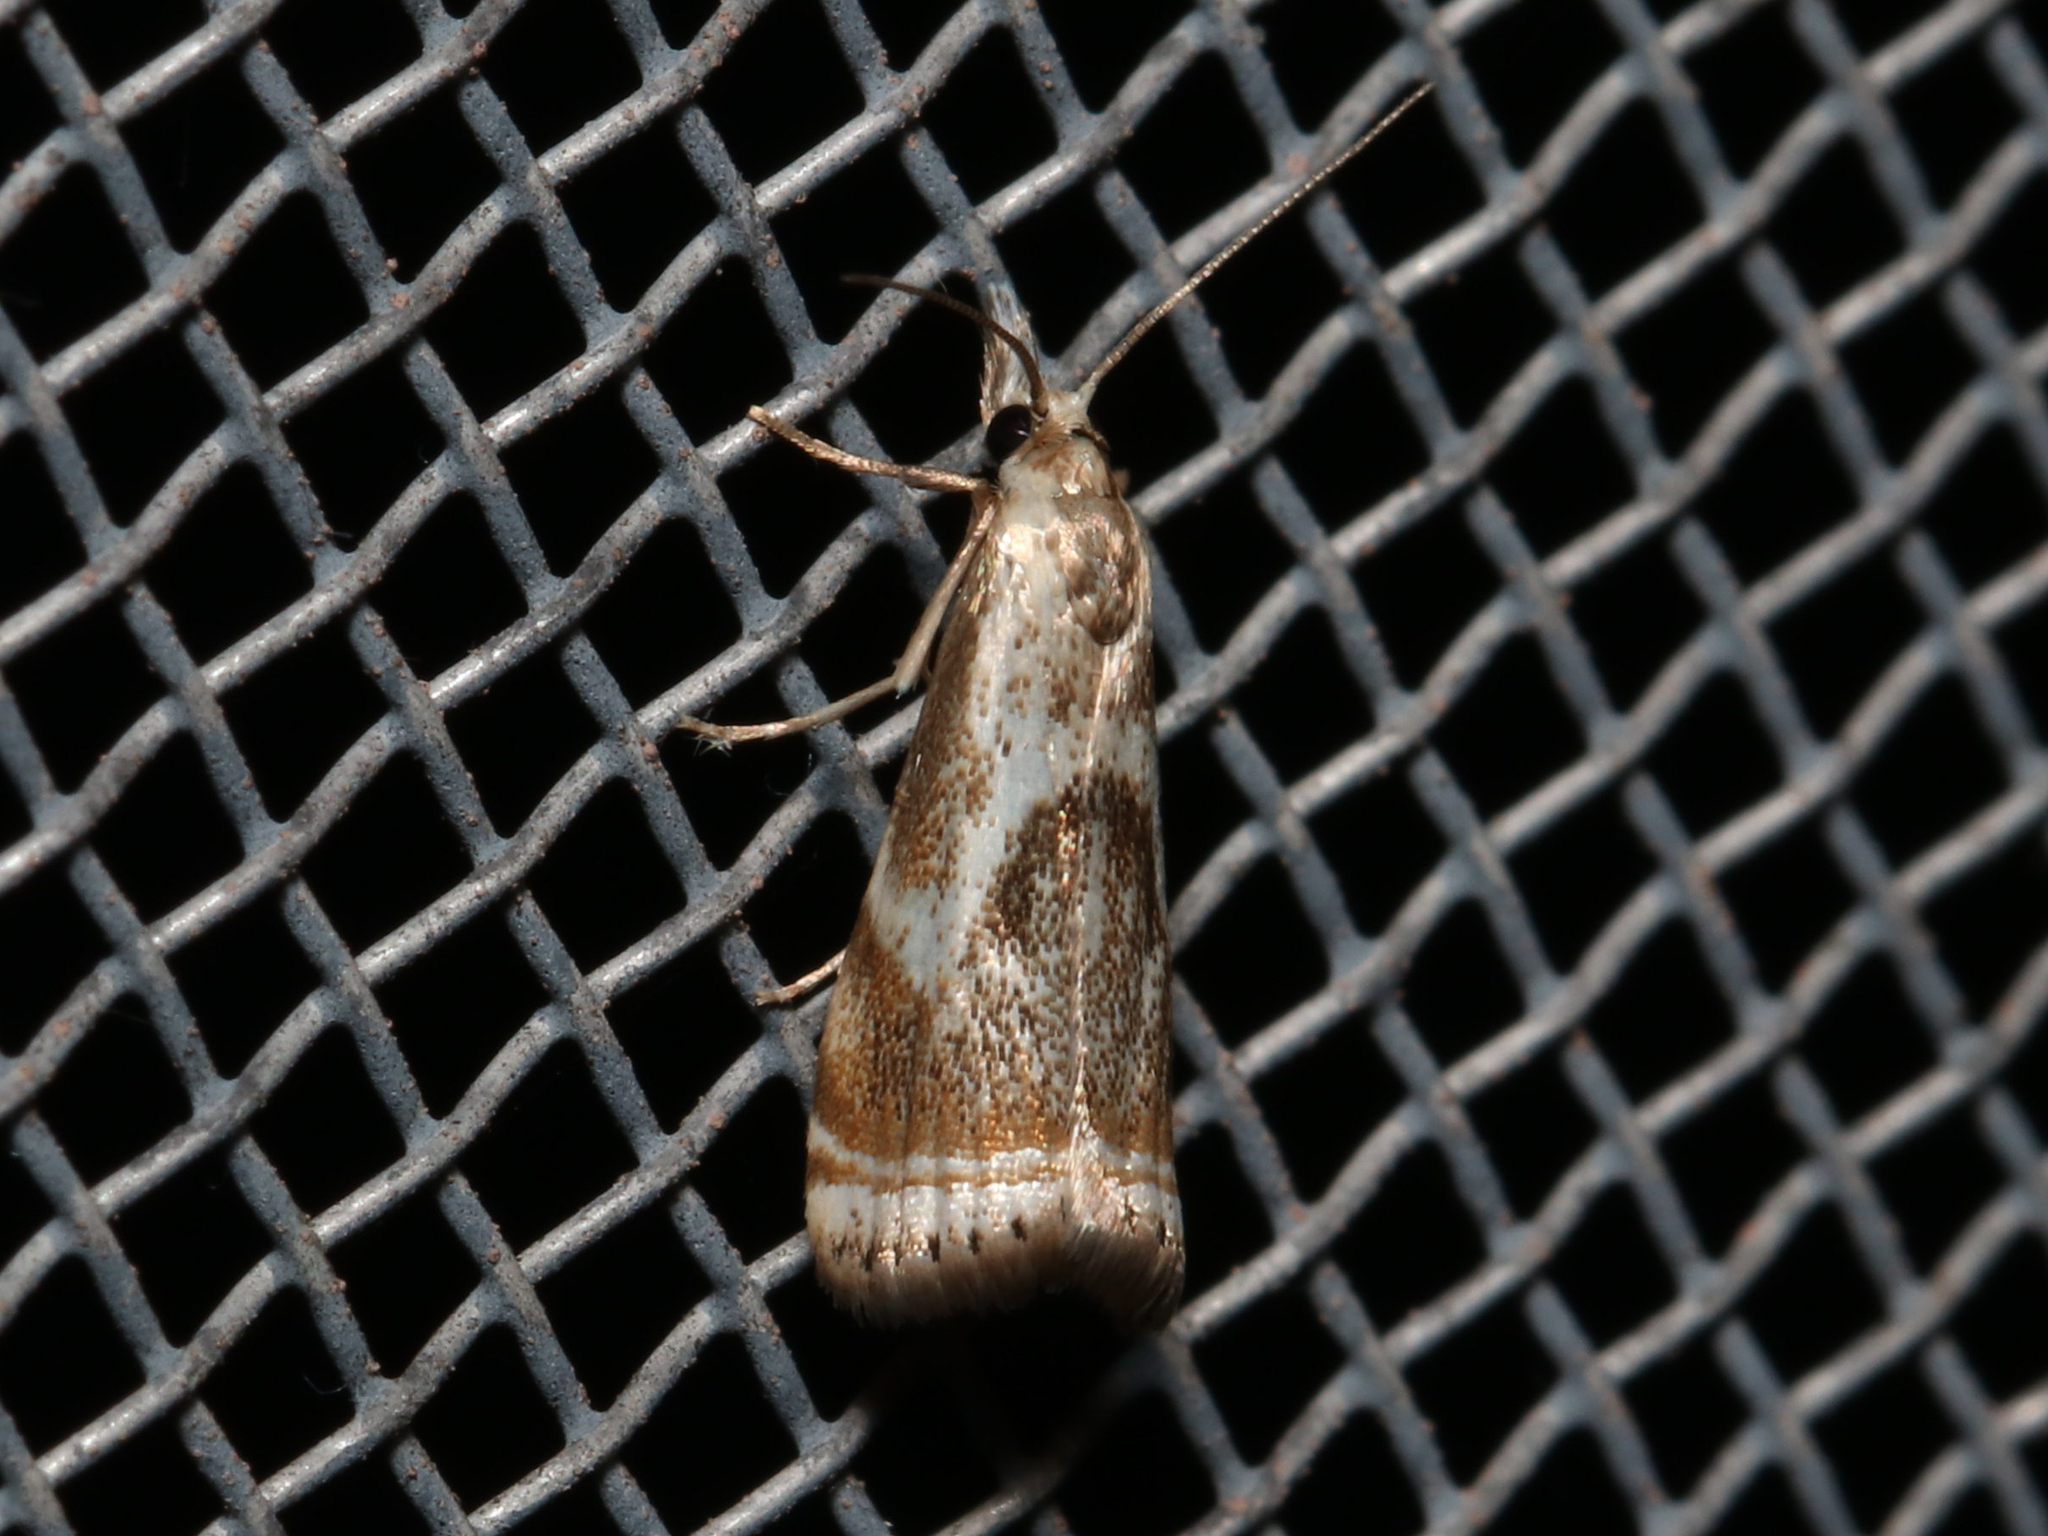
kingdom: Animalia
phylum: Arthropoda
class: Insecta
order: Lepidoptera
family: Crambidae
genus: Microcrambus
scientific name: Microcrambus elegans
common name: Elegant grass-veneer
